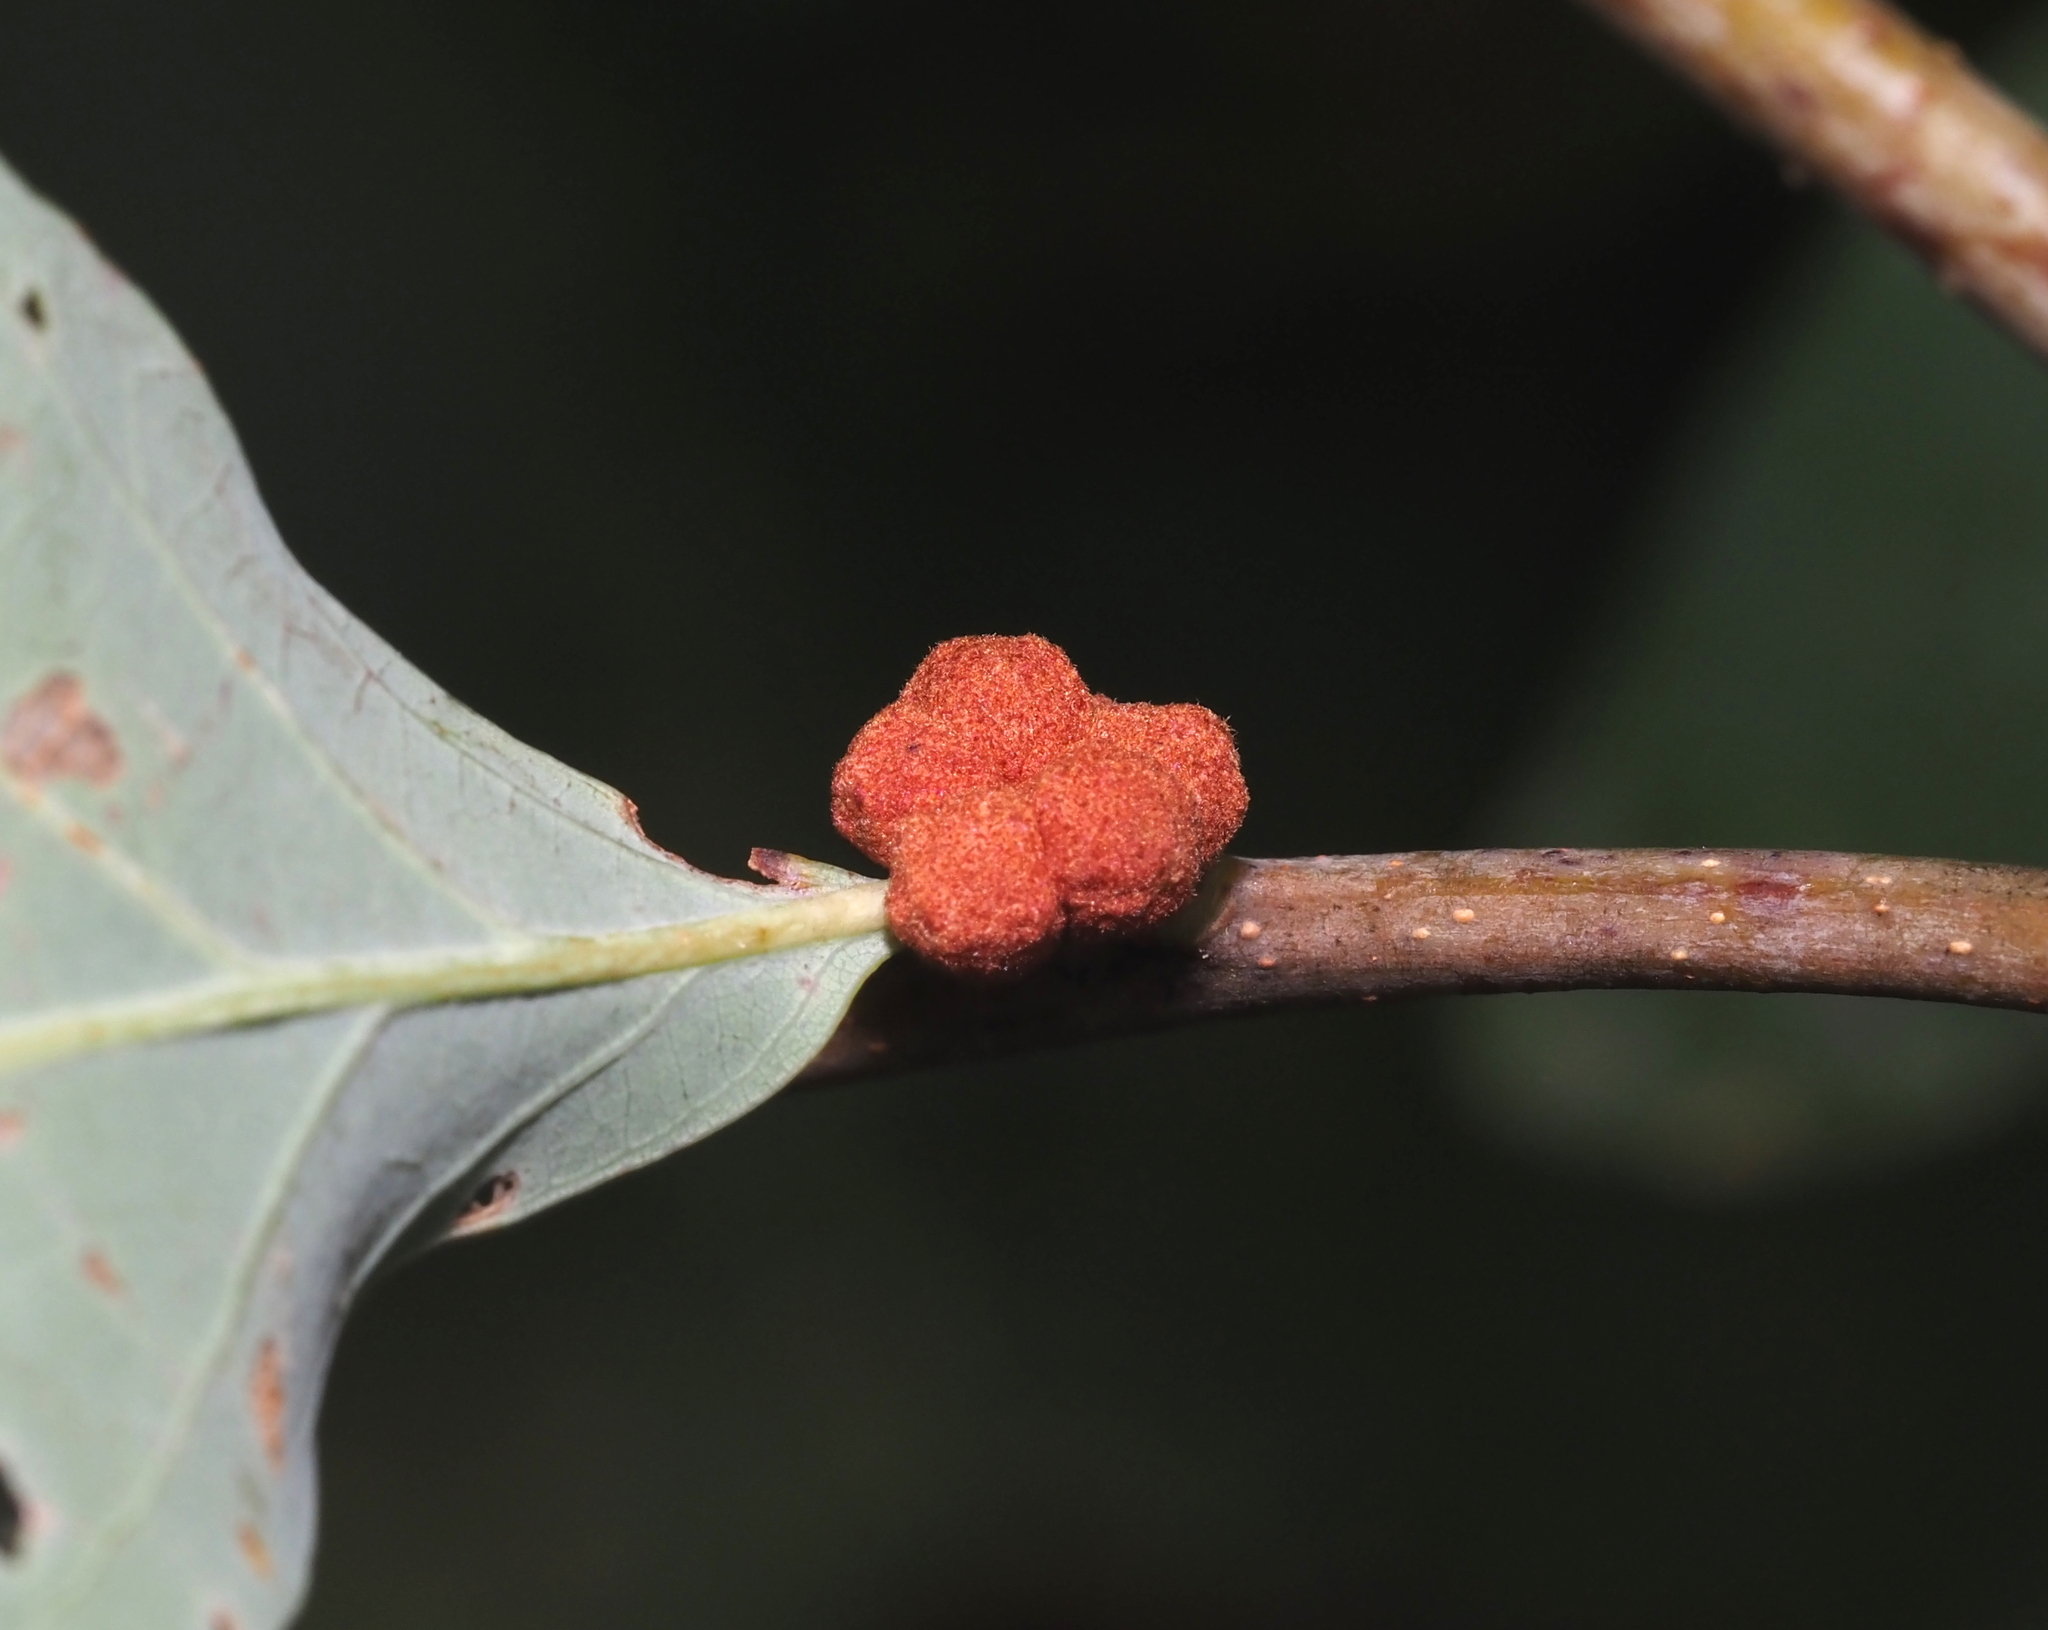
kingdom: Animalia
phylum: Arthropoda
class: Insecta
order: Hymenoptera
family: Cynipidae
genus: Andricus
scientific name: Andricus
